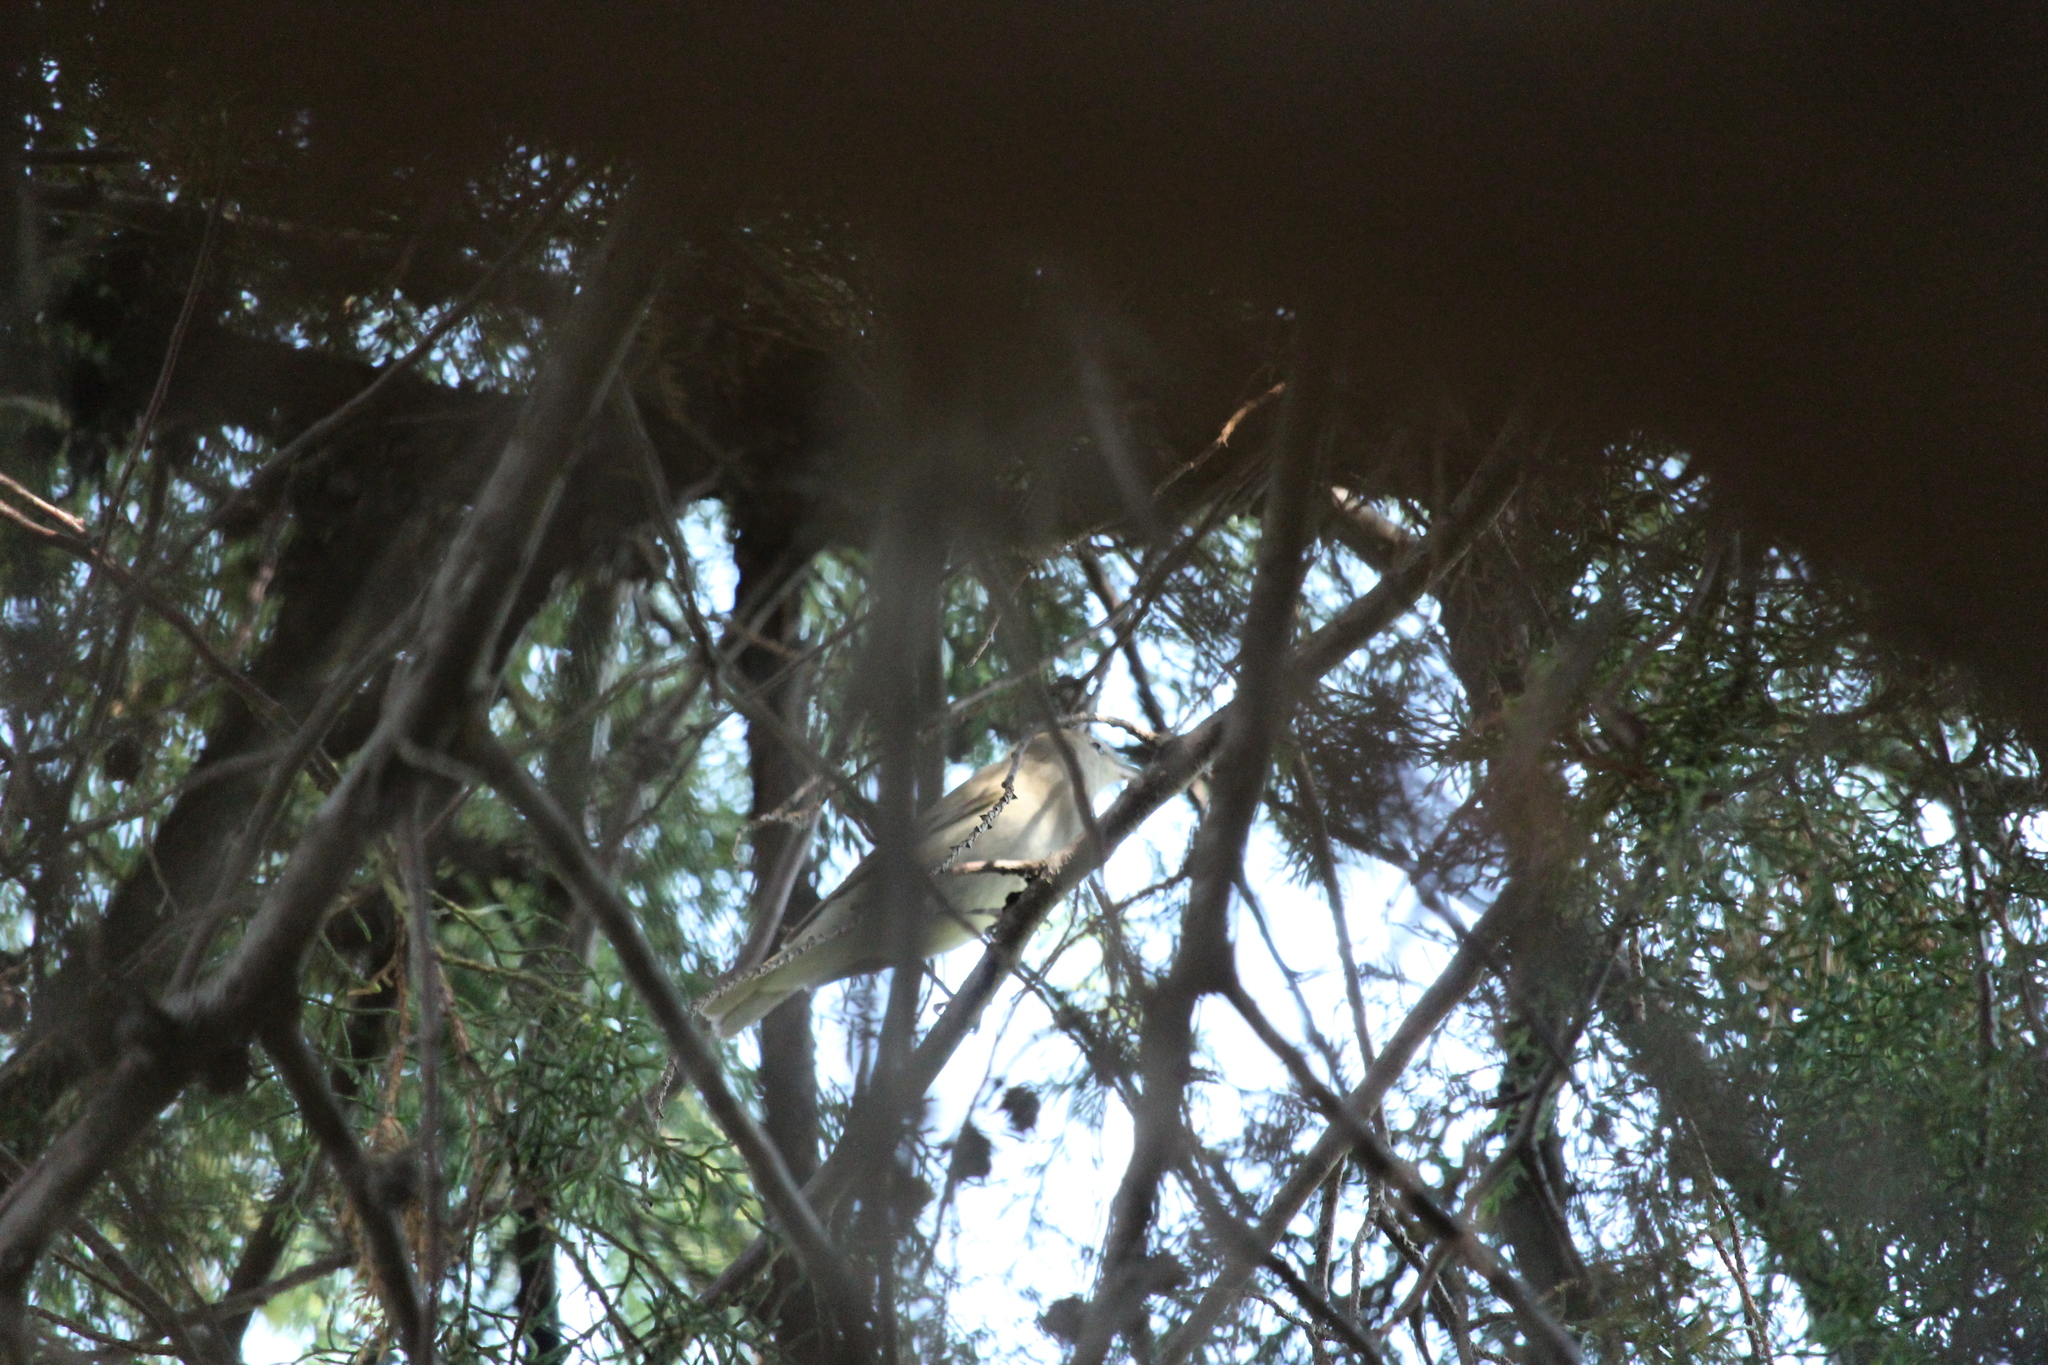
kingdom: Animalia
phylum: Chordata
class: Aves
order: Passeriformes
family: Sylviidae
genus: Sylvia
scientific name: Sylvia borin
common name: Garden warbler
